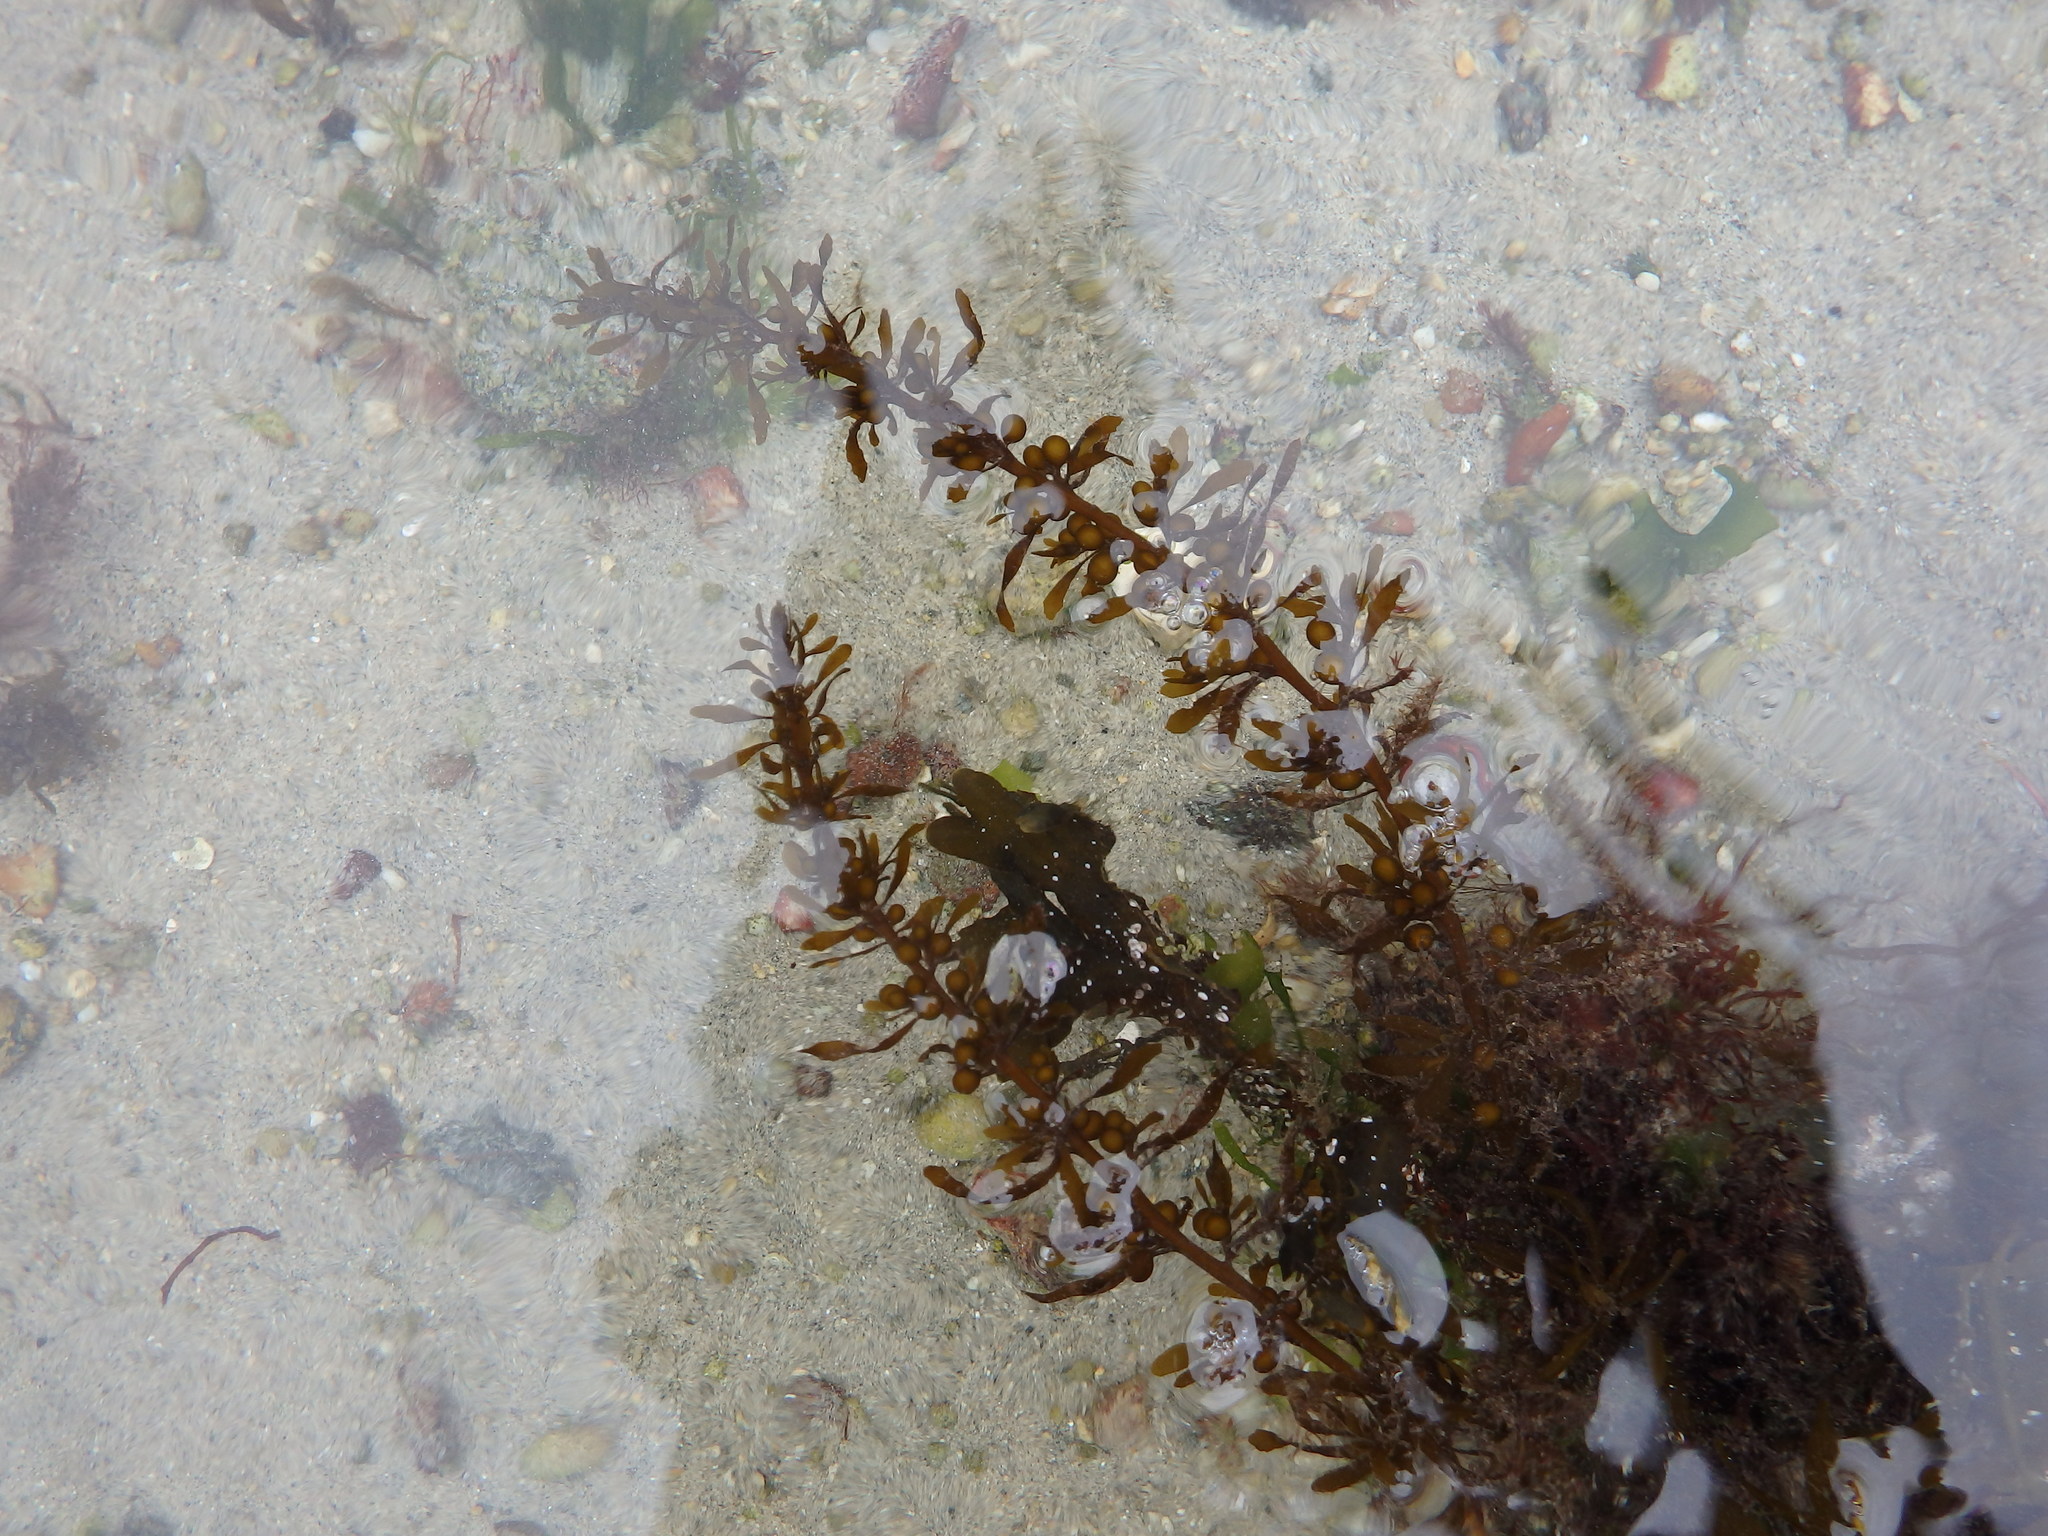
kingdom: Chromista
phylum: Ochrophyta
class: Phaeophyceae
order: Fucales
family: Sargassaceae
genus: Sargassum
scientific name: Sargassum muticum
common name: Japweed
